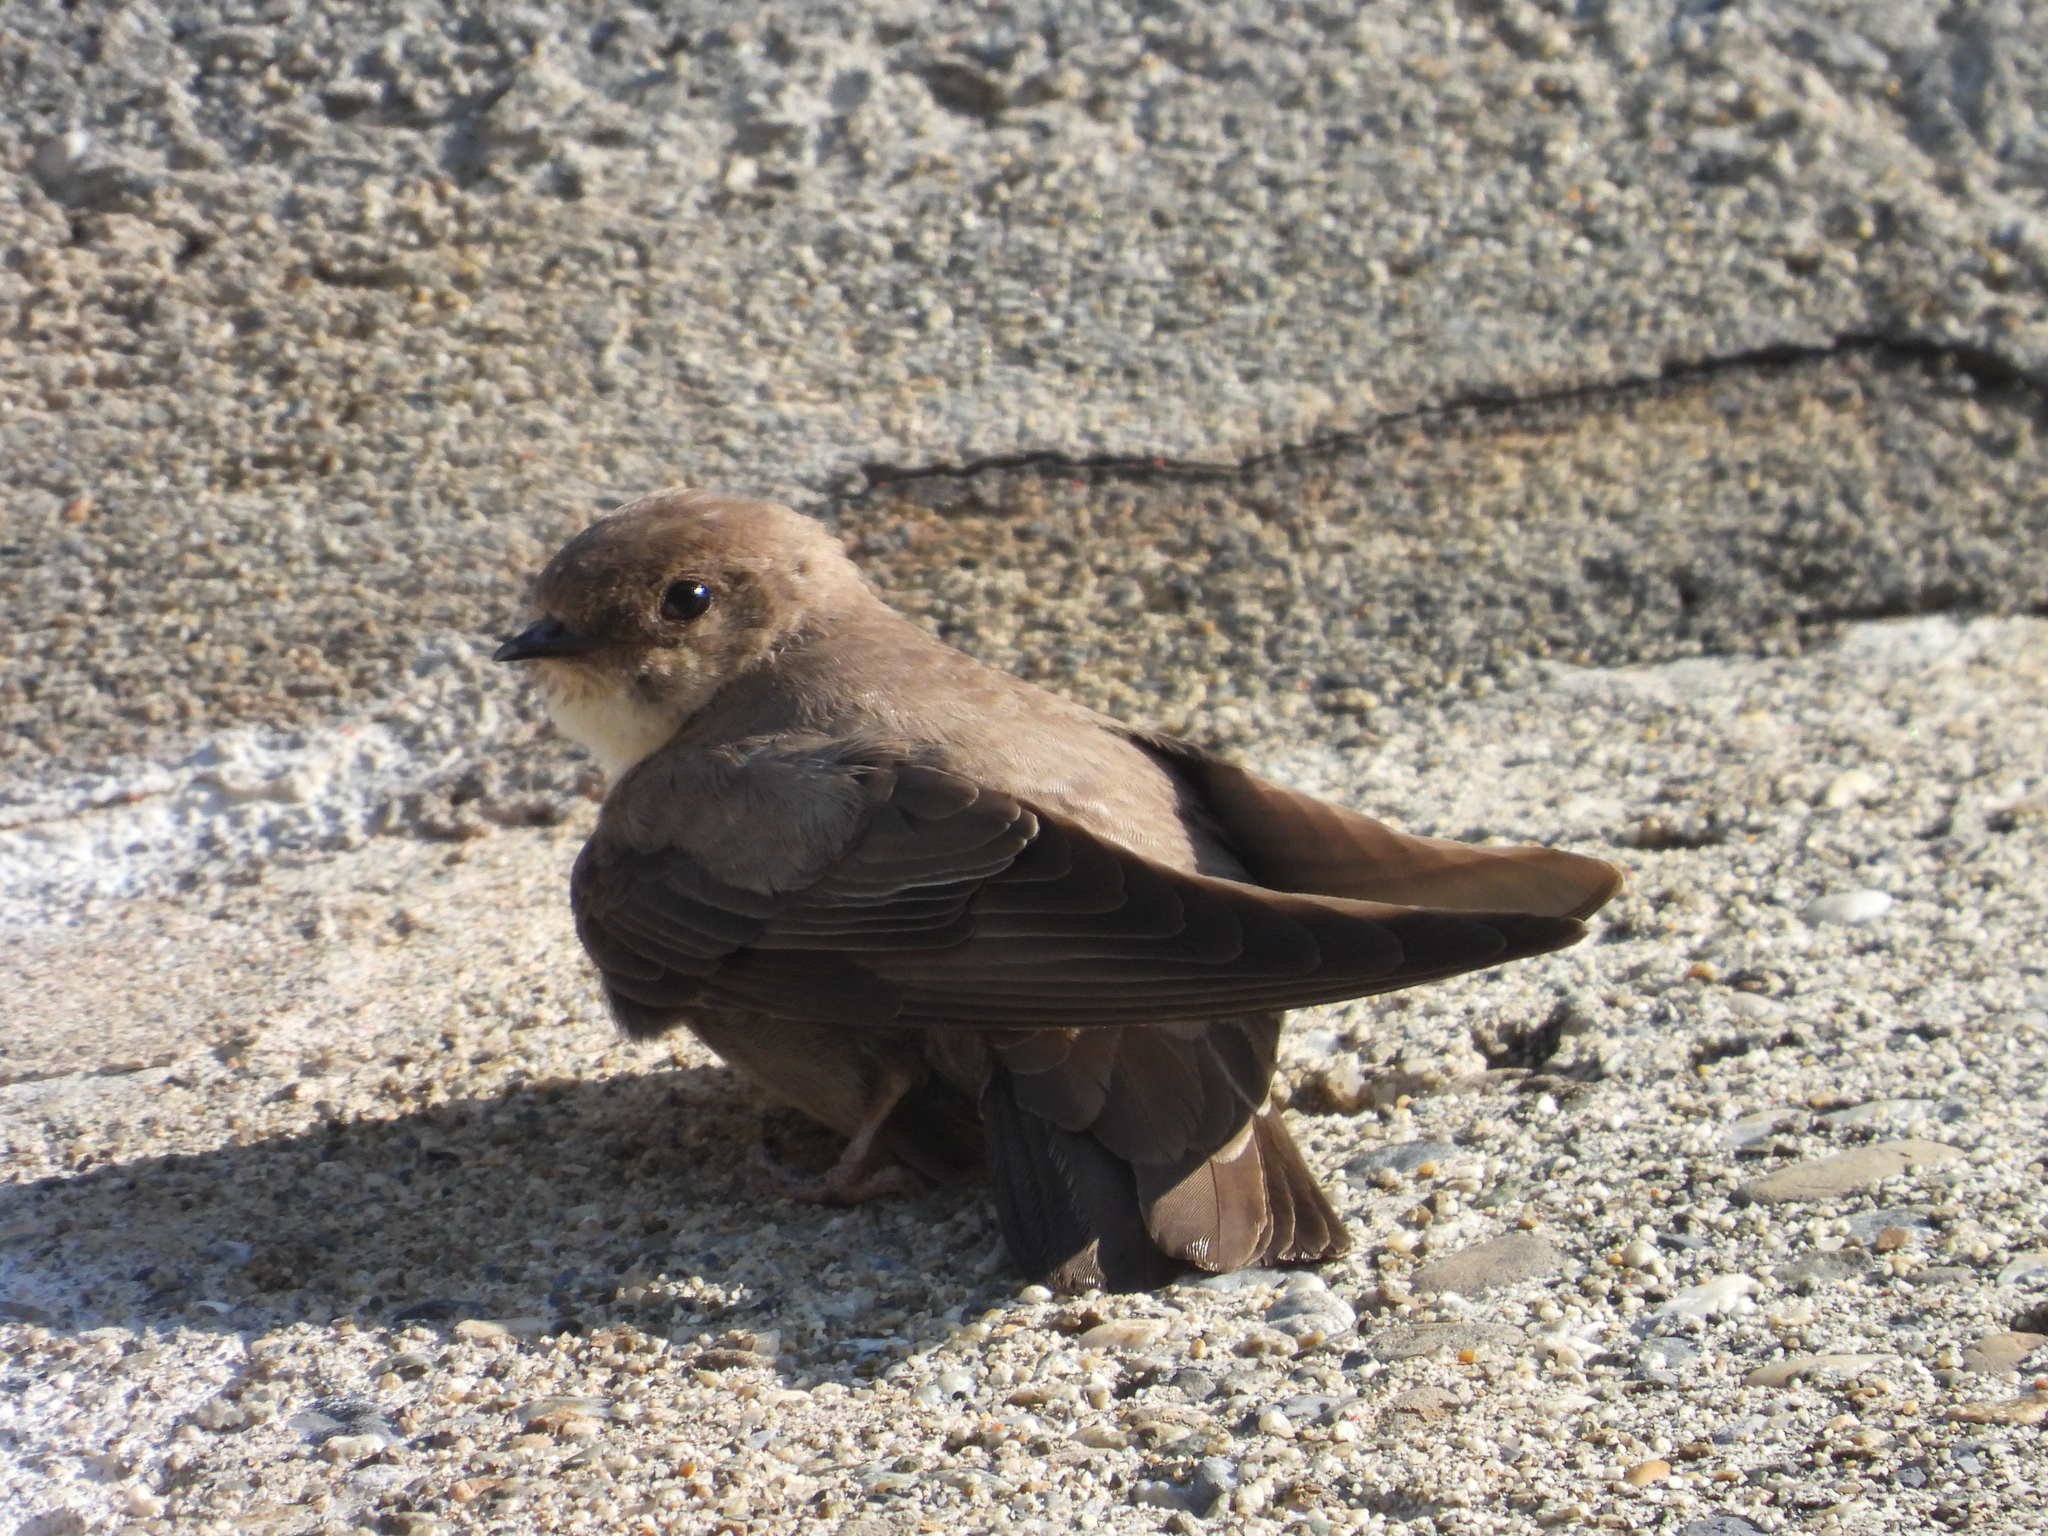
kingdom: Animalia
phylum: Chordata
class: Aves
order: Passeriformes
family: Hirundinidae
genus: Ptyonoprogne
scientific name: Ptyonoprogne rupestris
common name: Eurasian crag martin
